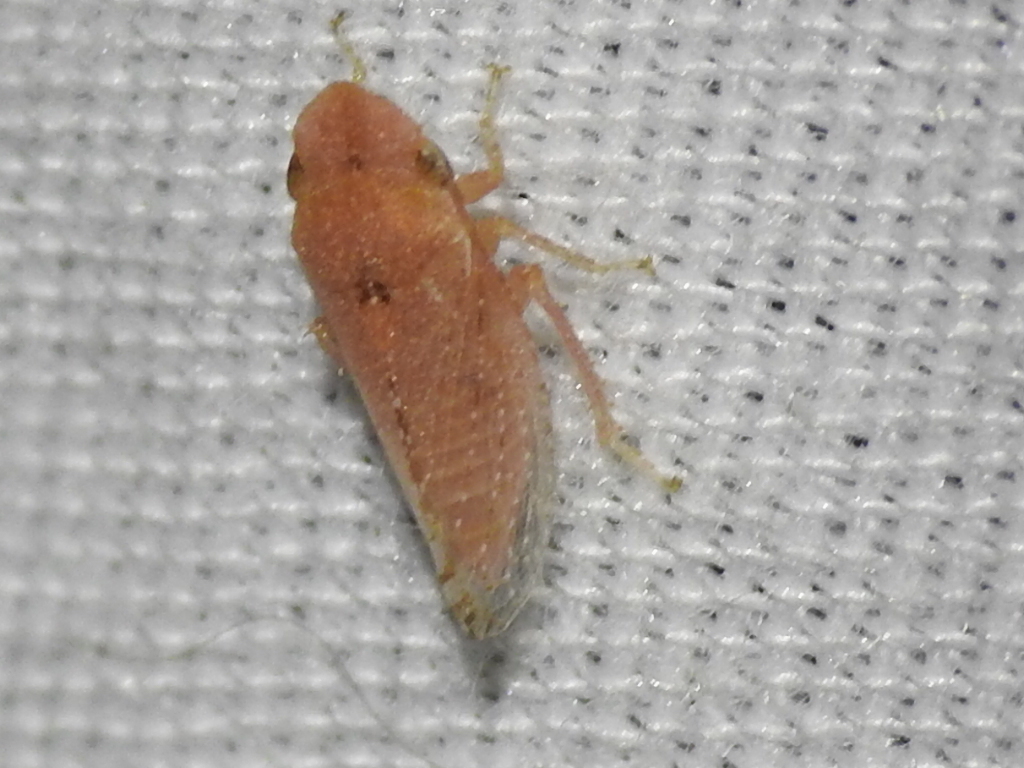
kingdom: Animalia
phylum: Arthropoda
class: Insecta
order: Hemiptera
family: Cicadellidae
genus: Xerophloea
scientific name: Xerophloea viridis
